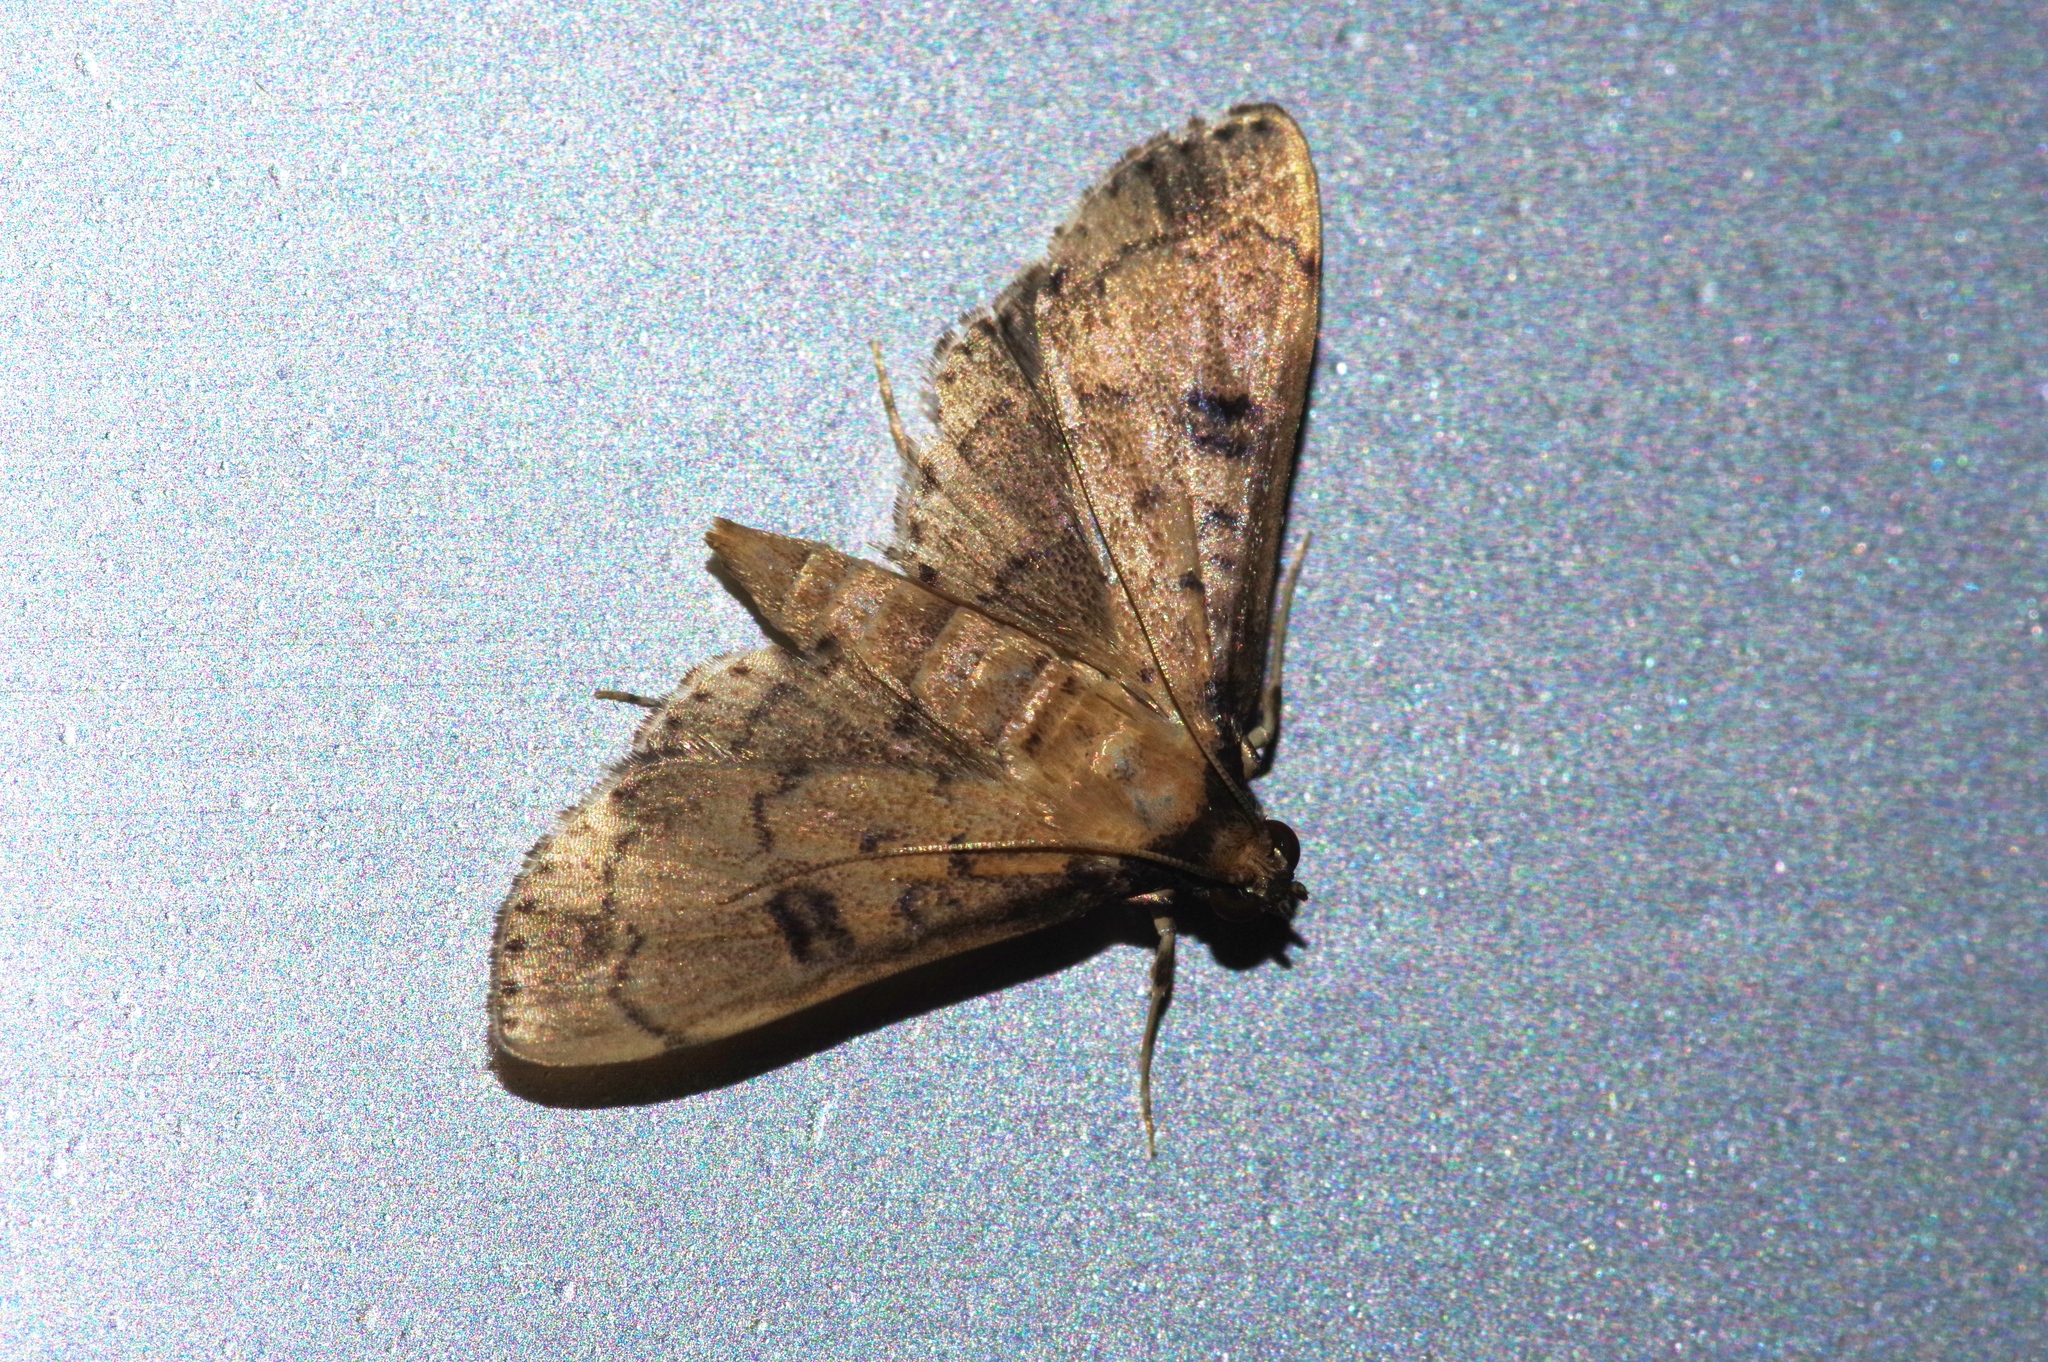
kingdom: Animalia
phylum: Arthropoda
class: Insecta
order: Lepidoptera
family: Crambidae
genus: Nacoleia
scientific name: Nacoleia charesalis
